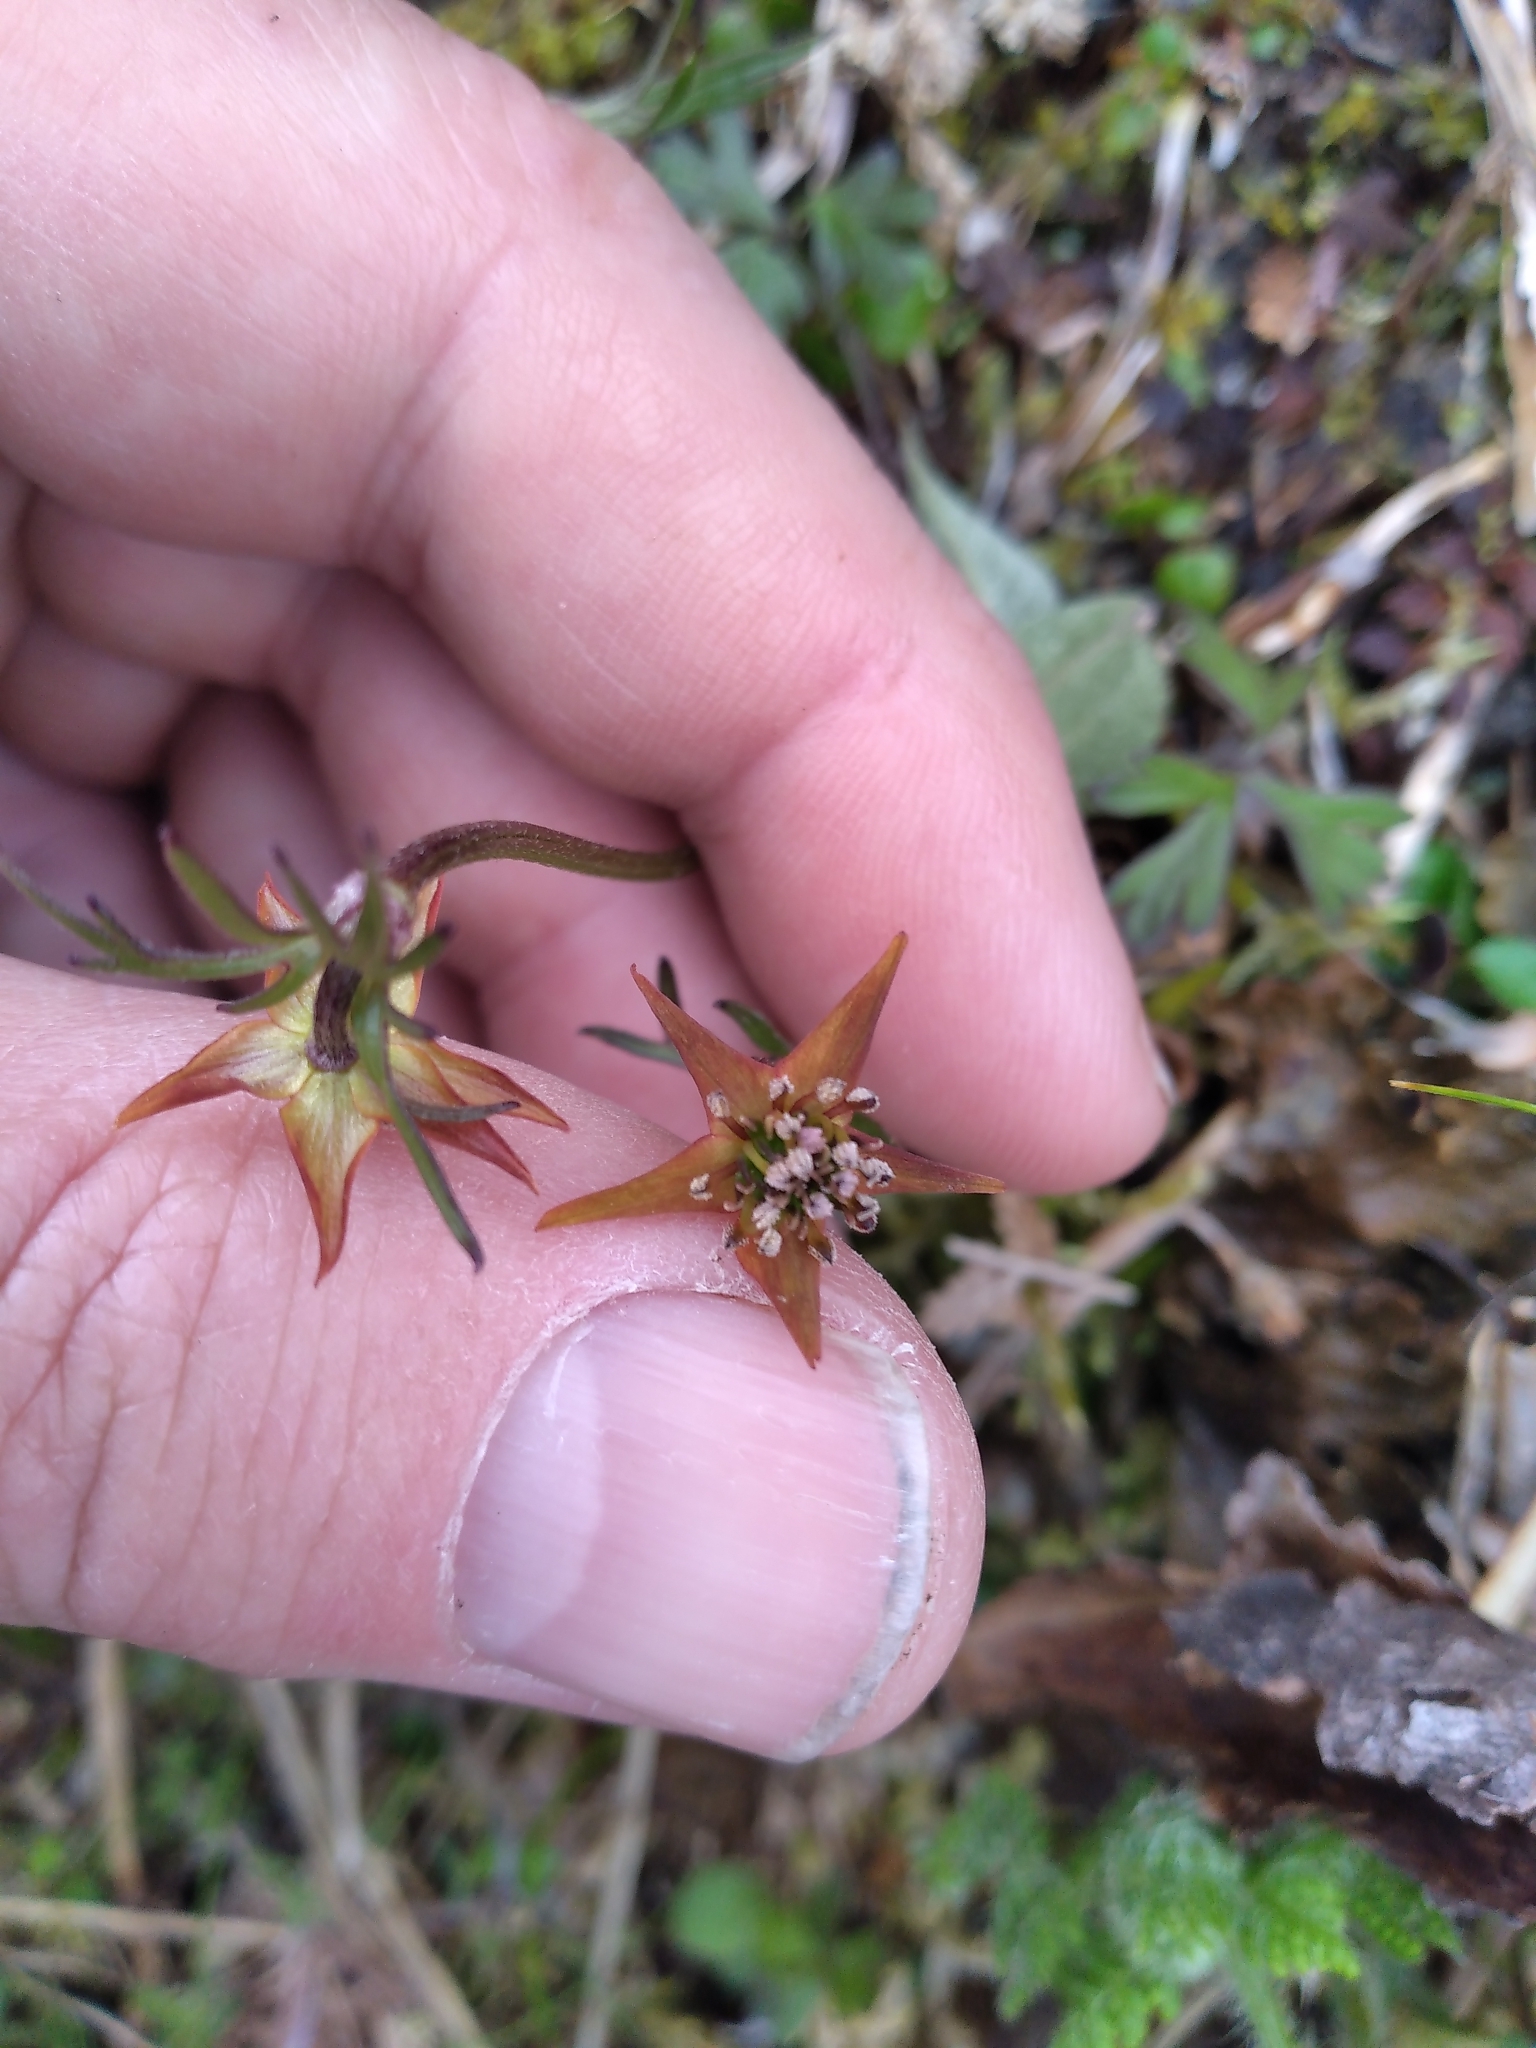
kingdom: Plantae
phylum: Tracheophyta
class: Magnoliopsida
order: Ranunculales
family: Ranunculaceae
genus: Anemonastrum
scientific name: Anemonastrum tenuicaule
